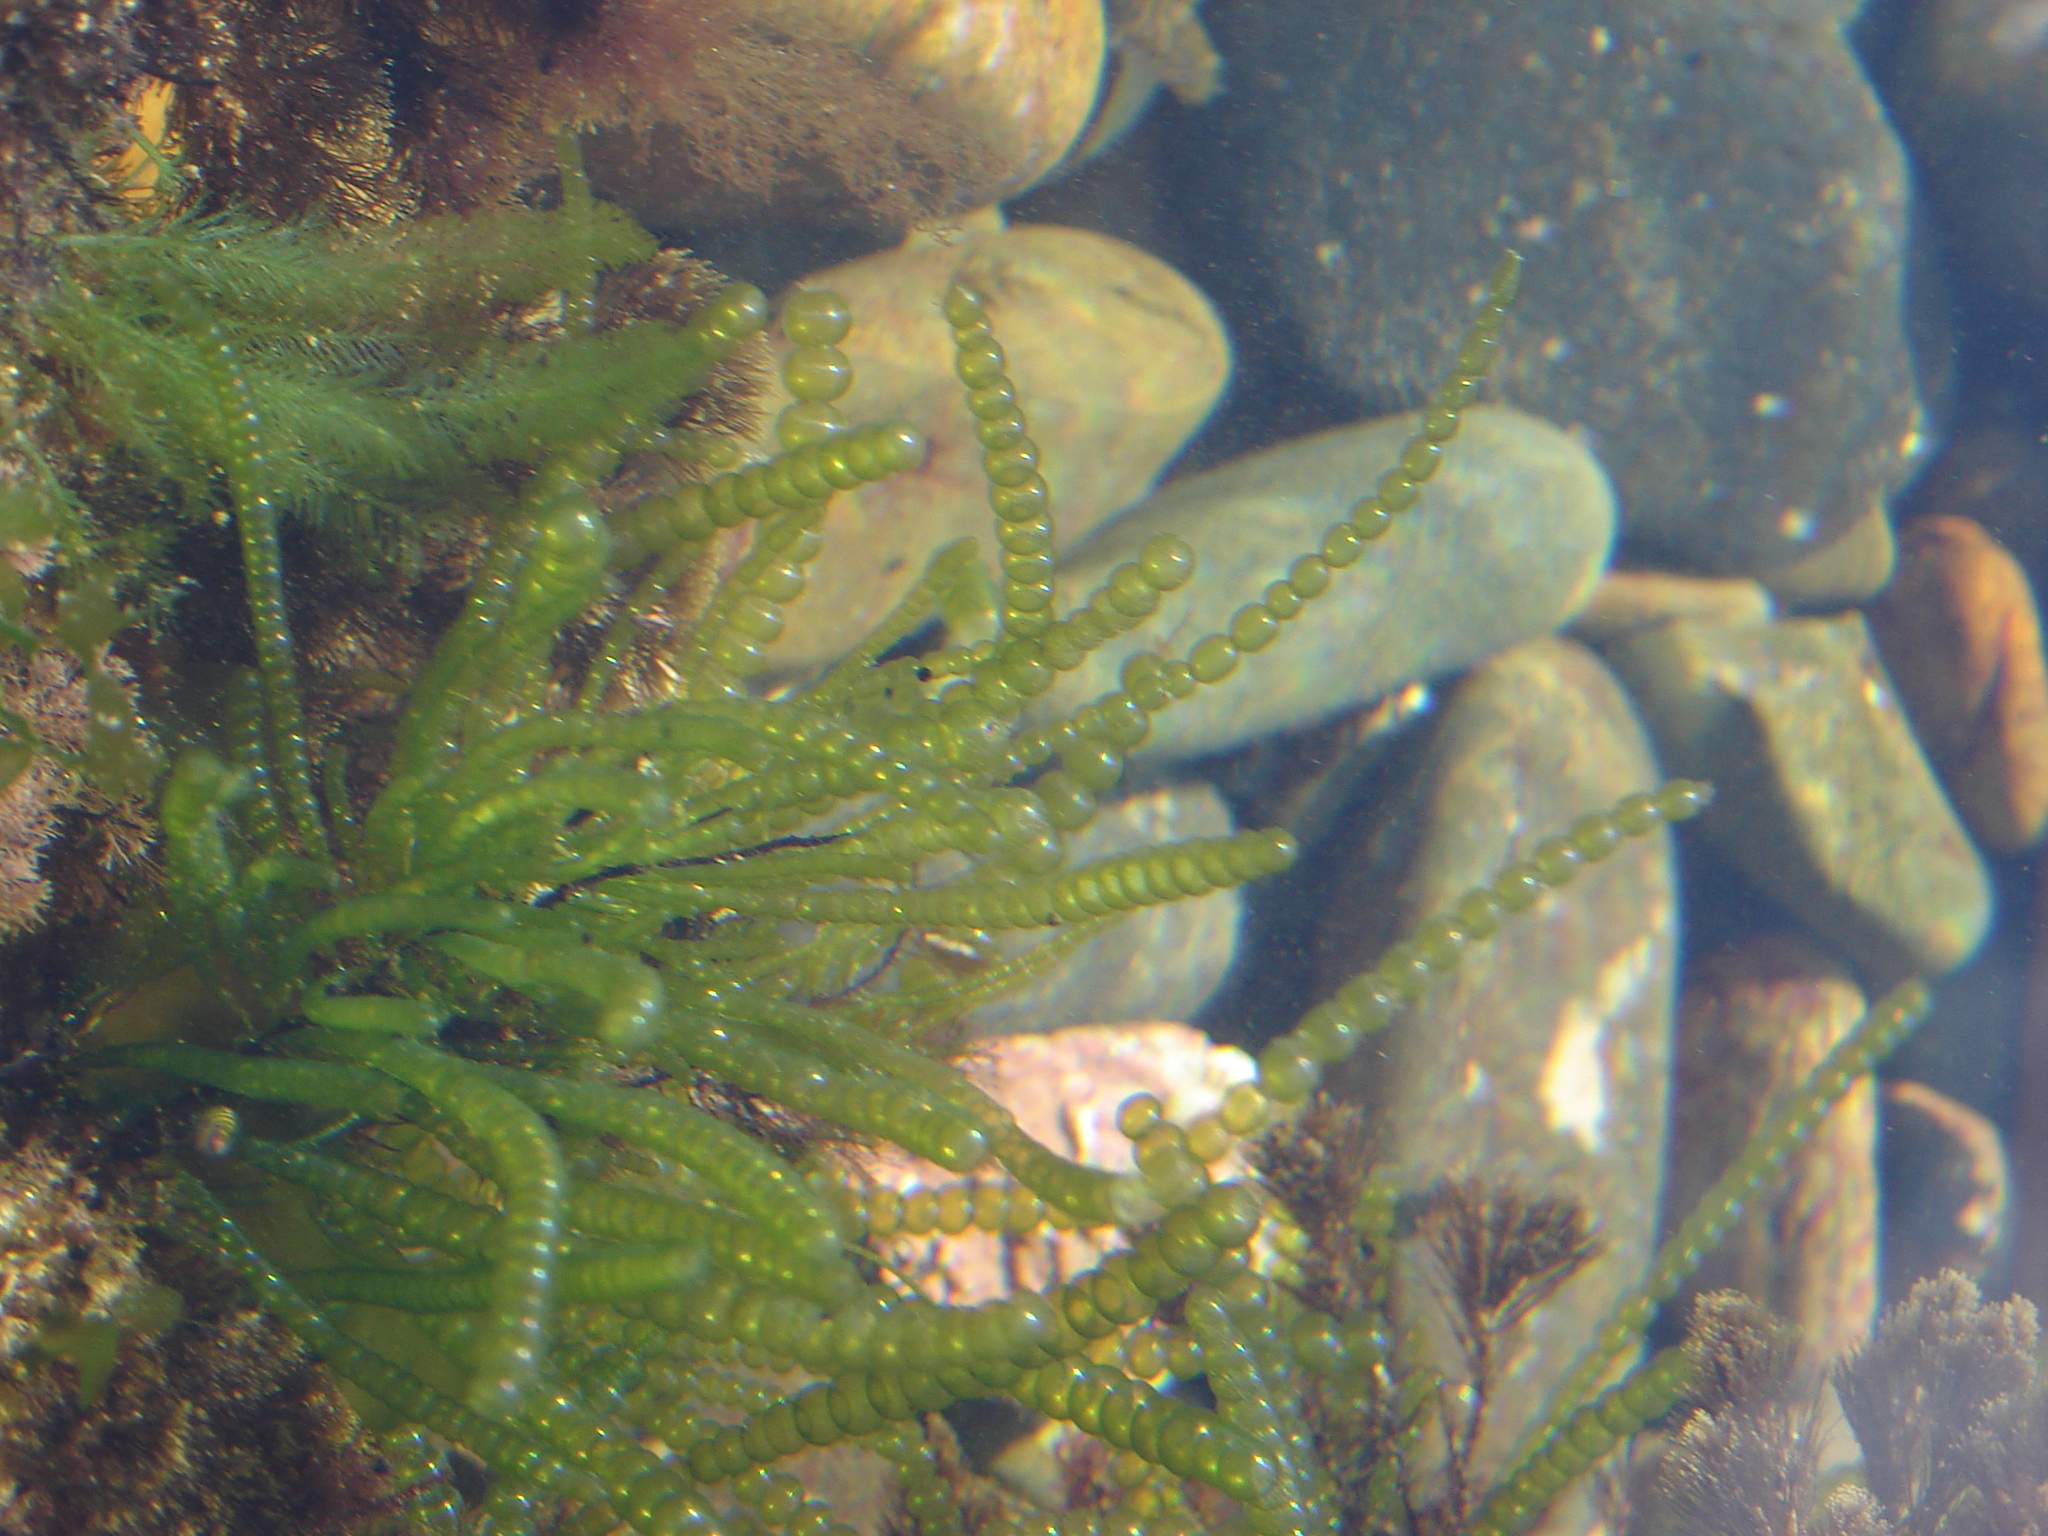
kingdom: Plantae
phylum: Chlorophyta
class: Ulvophyceae
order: Cladophorales
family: Cladophoraceae
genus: Chaetomorpha
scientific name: Chaetomorpha coliformis
